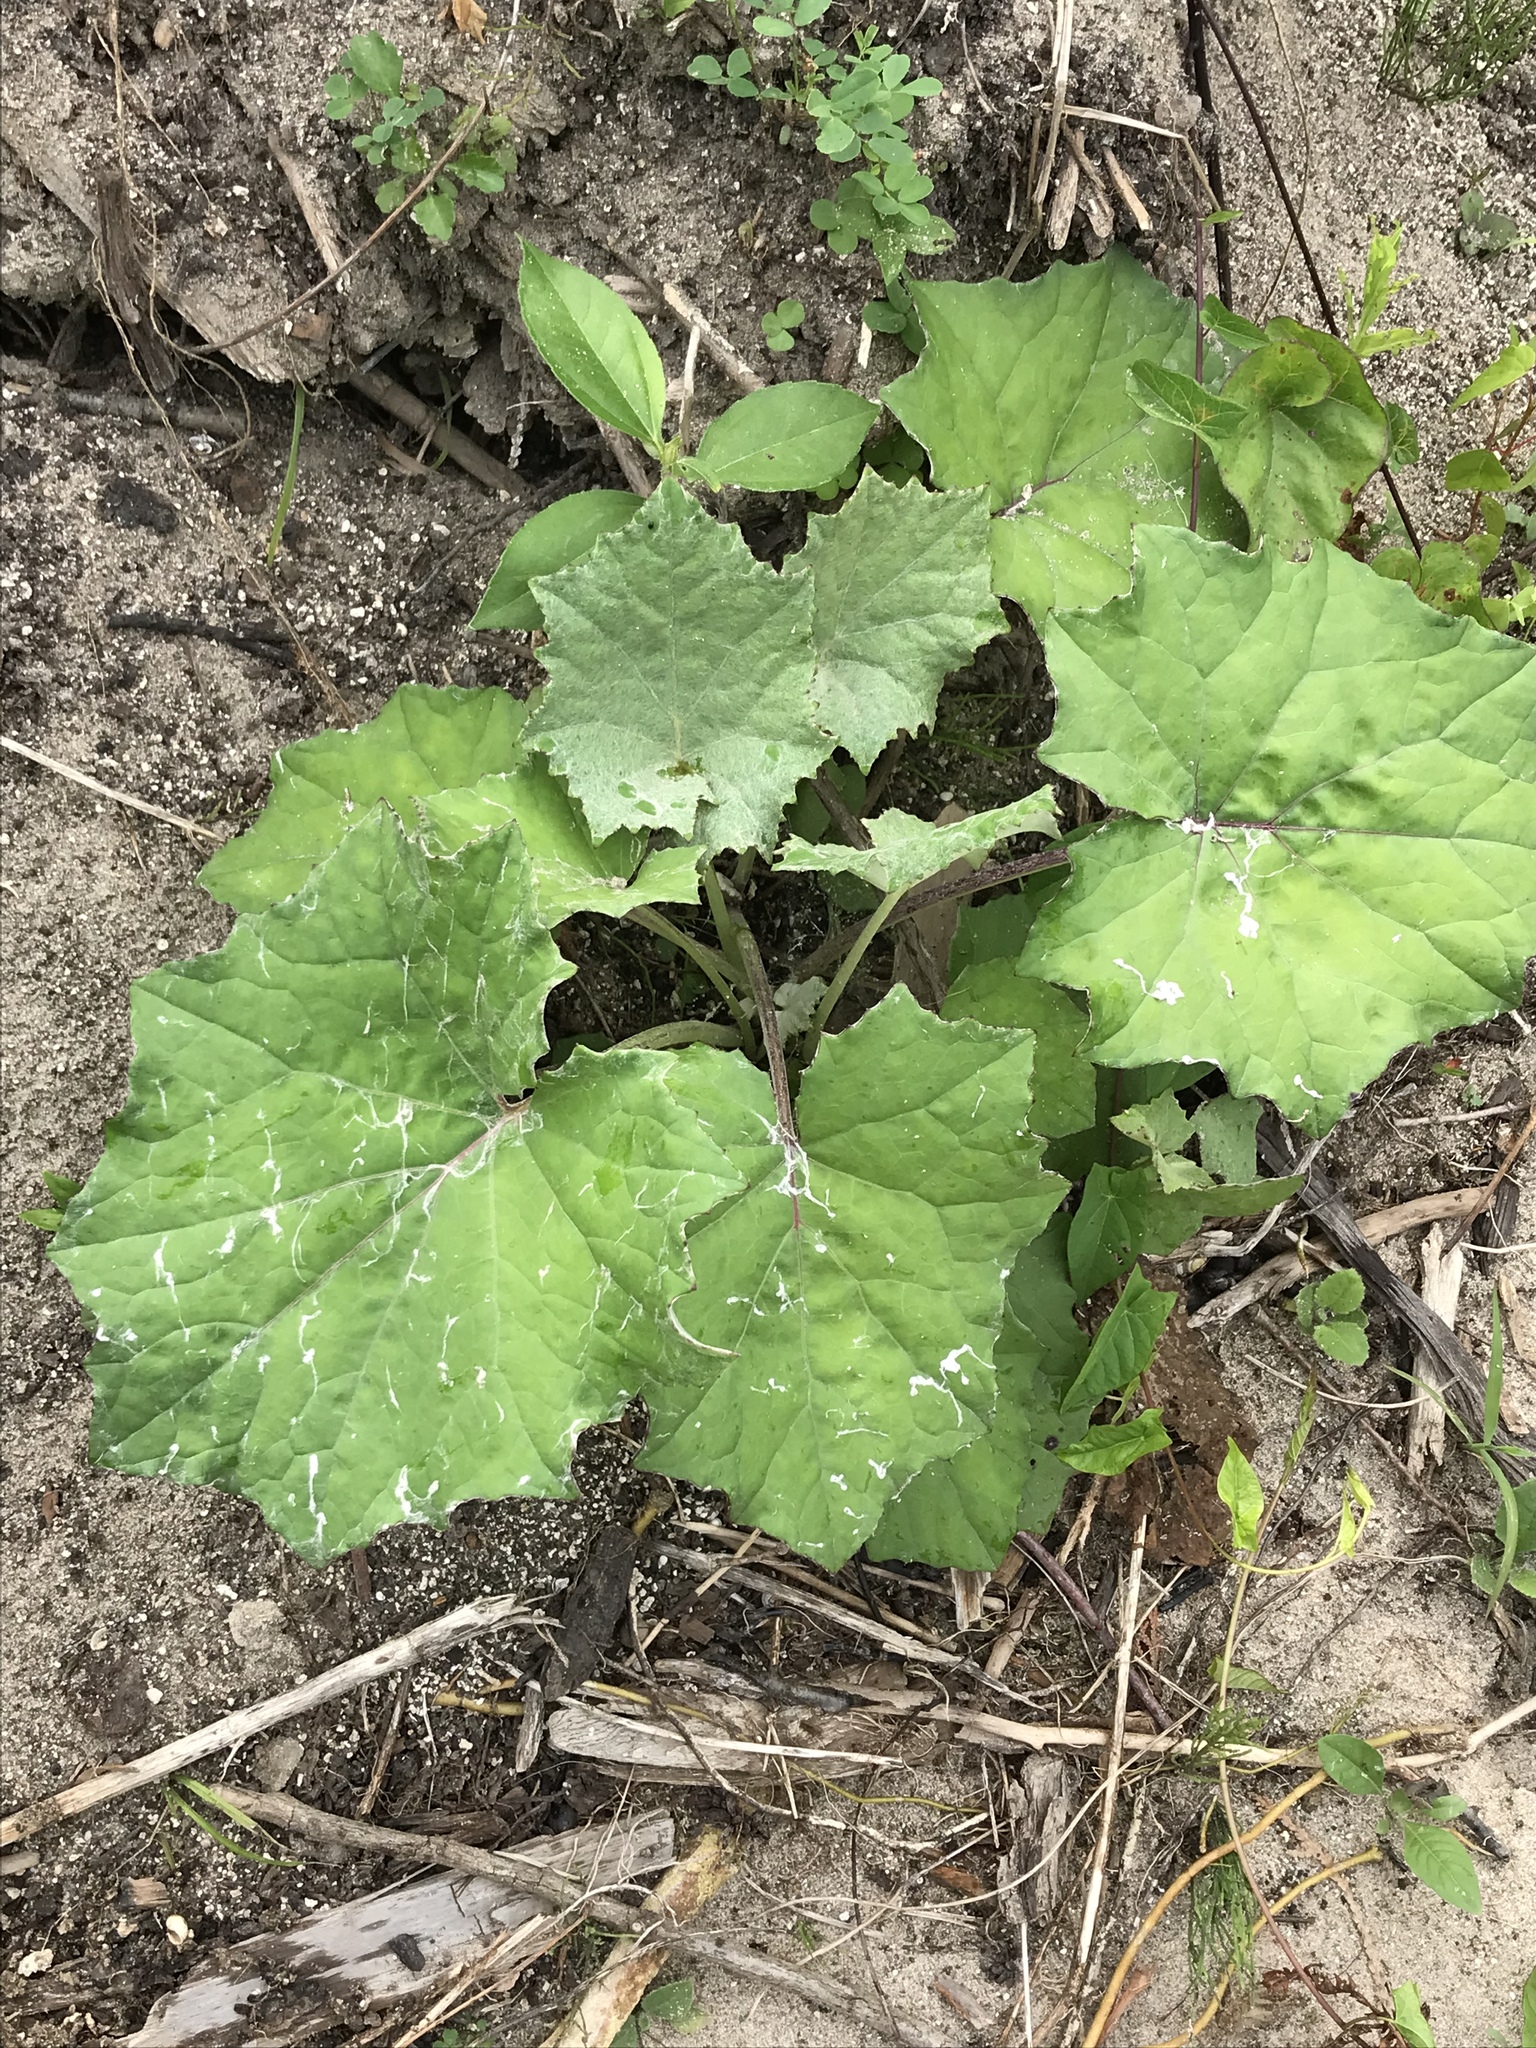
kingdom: Plantae
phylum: Tracheophyta
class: Magnoliopsida
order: Asterales
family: Asteraceae
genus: Tussilago
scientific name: Tussilago farfara
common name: Coltsfoot
